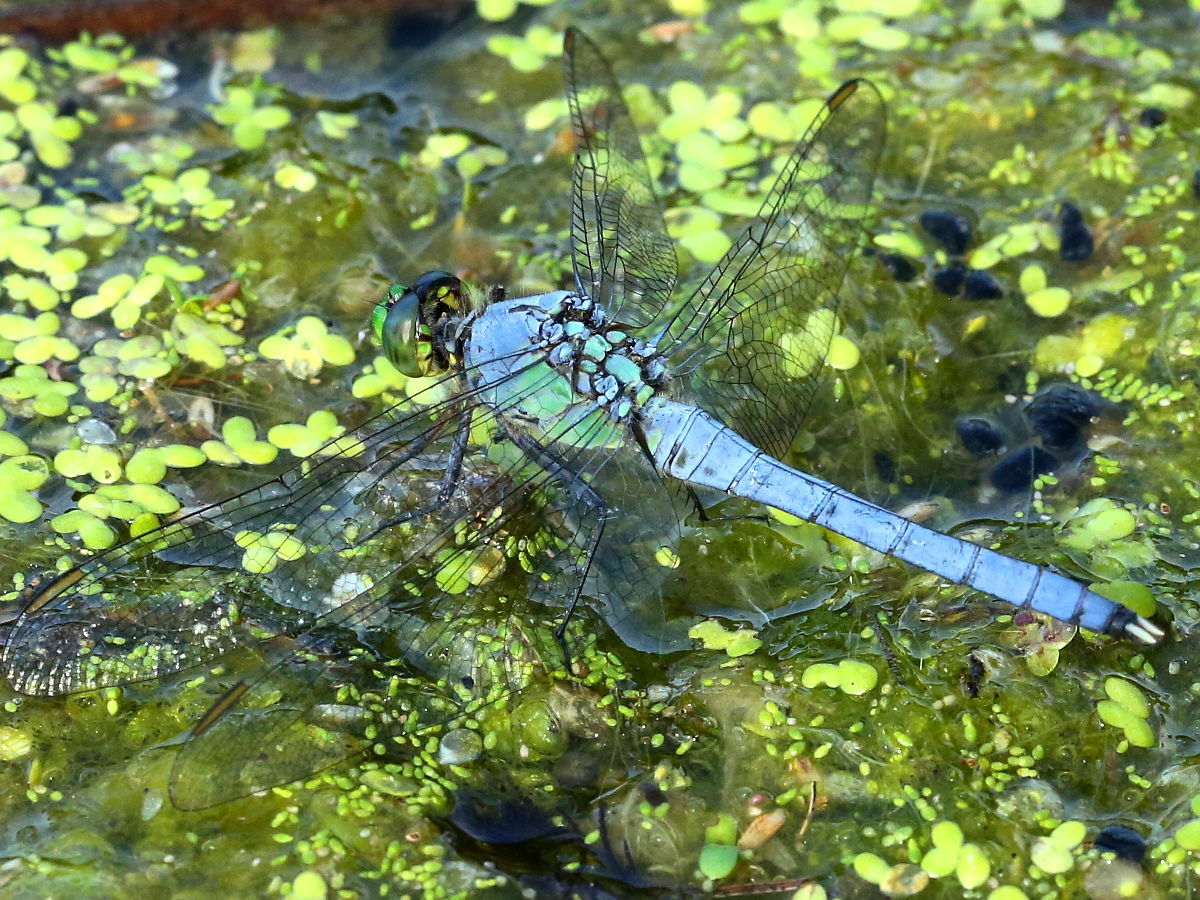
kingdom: Animalia
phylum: Arthropoda
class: Insecta
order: Odonata
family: Libellulidae
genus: Erythemis
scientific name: Erythemis simplicicollis
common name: Eastern pondhawk
